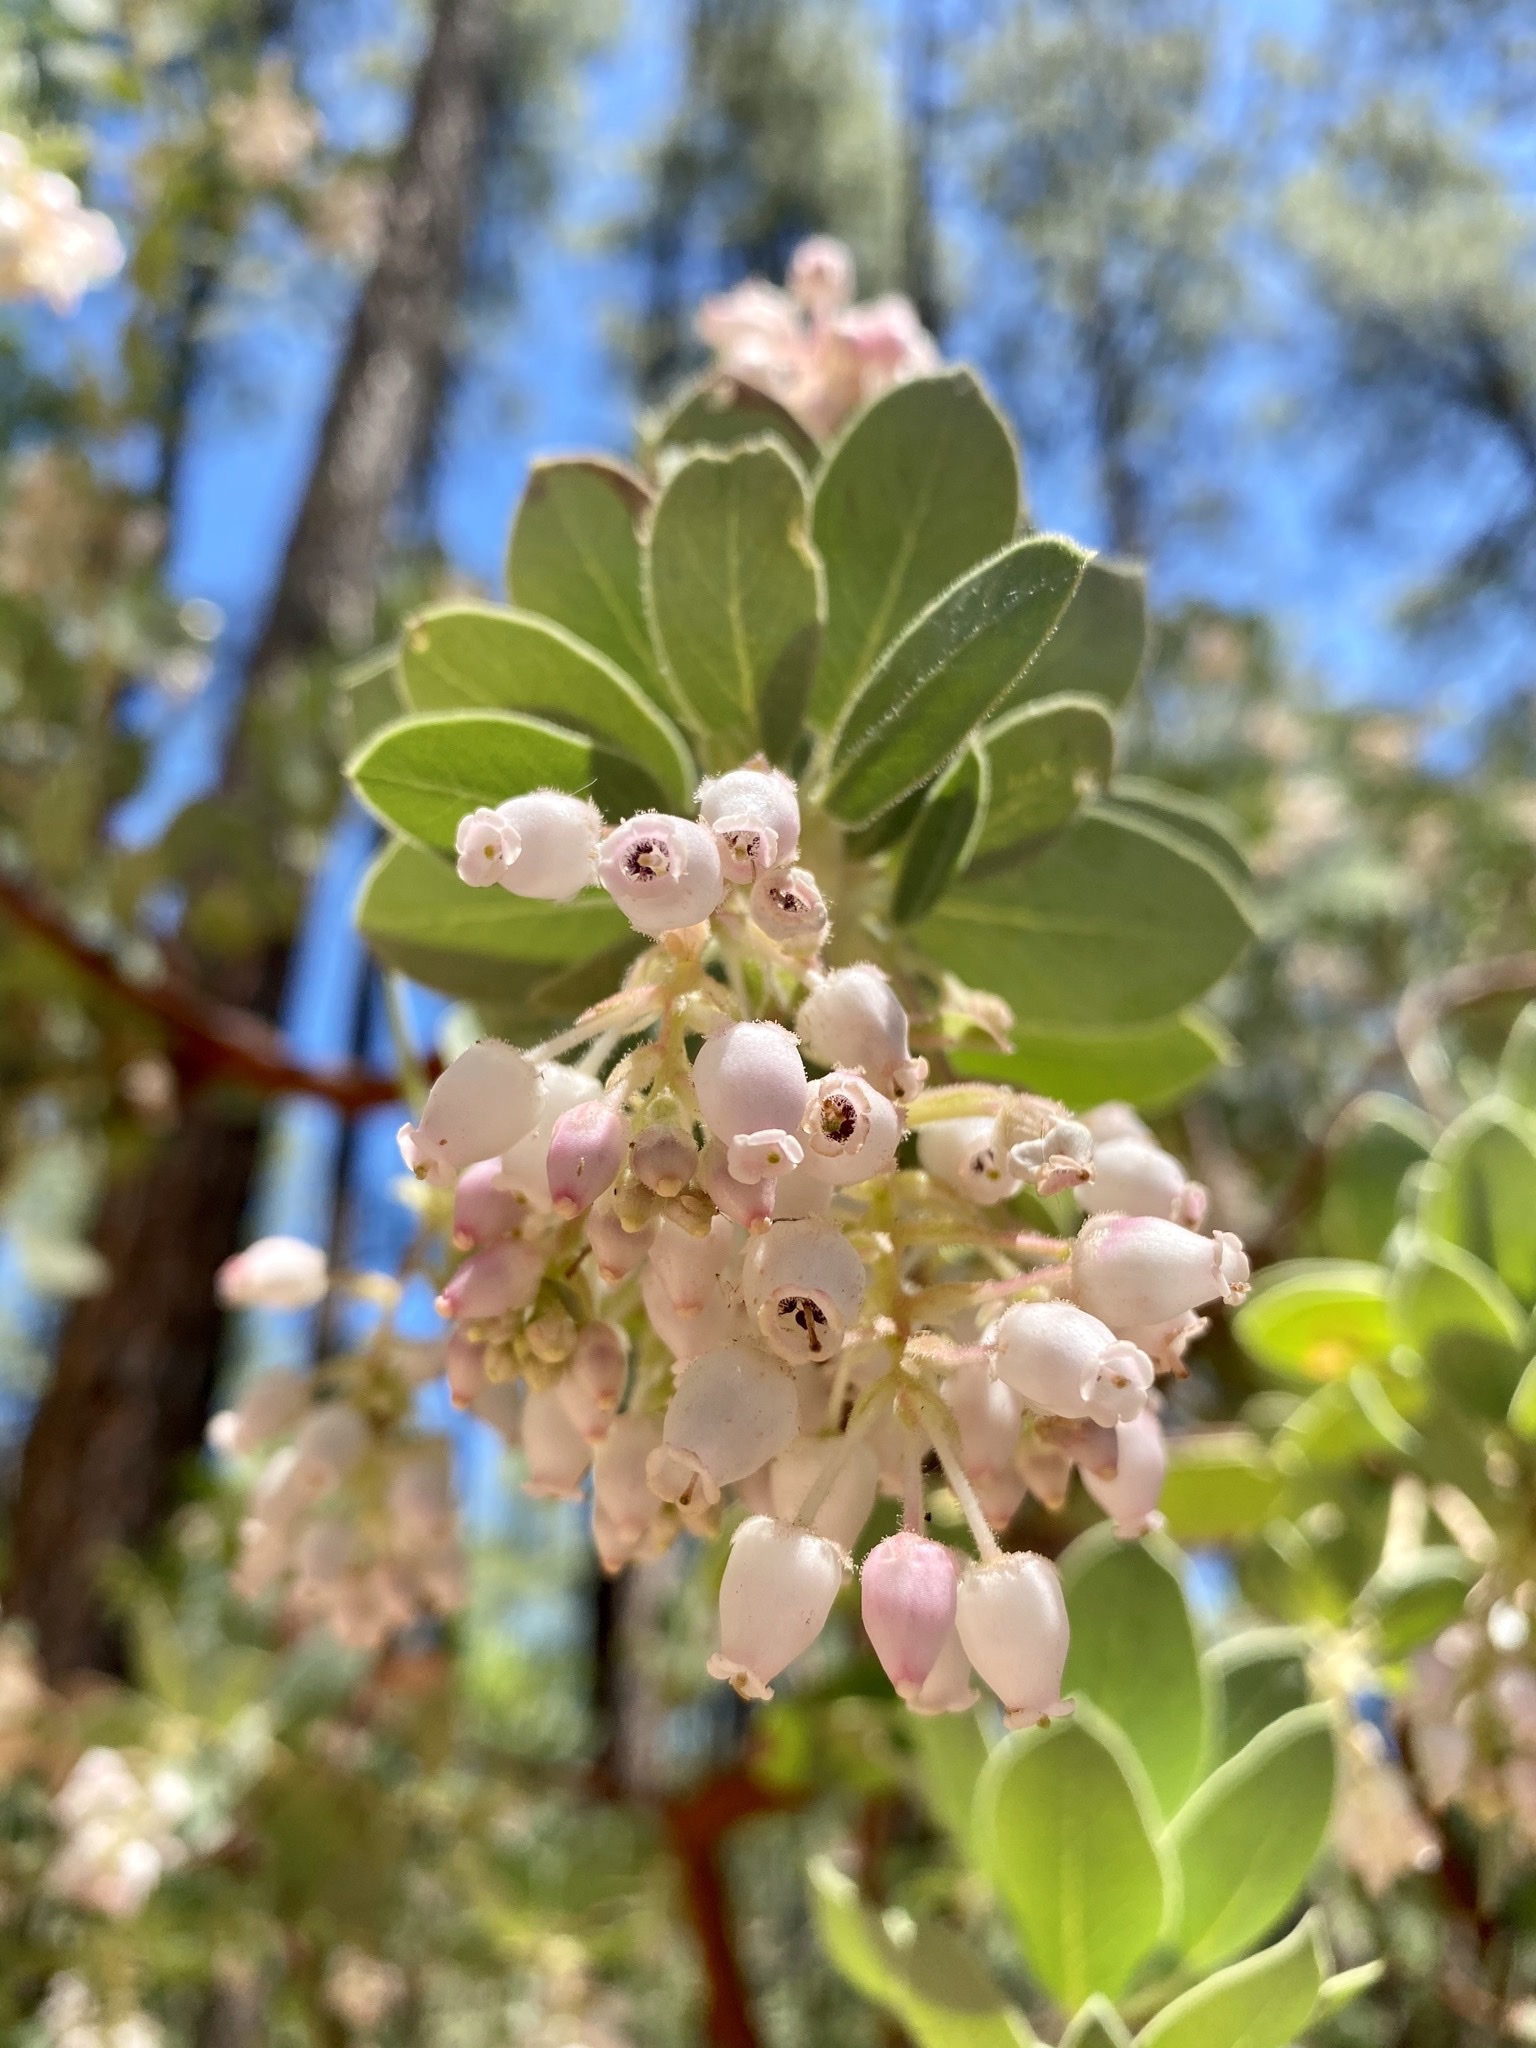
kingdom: Plantae
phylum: Tracheophyta
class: Magnoliopsida
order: Ericales
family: Ericaceae
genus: Arctostaphylos
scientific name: Arctostaphylos pringlei
